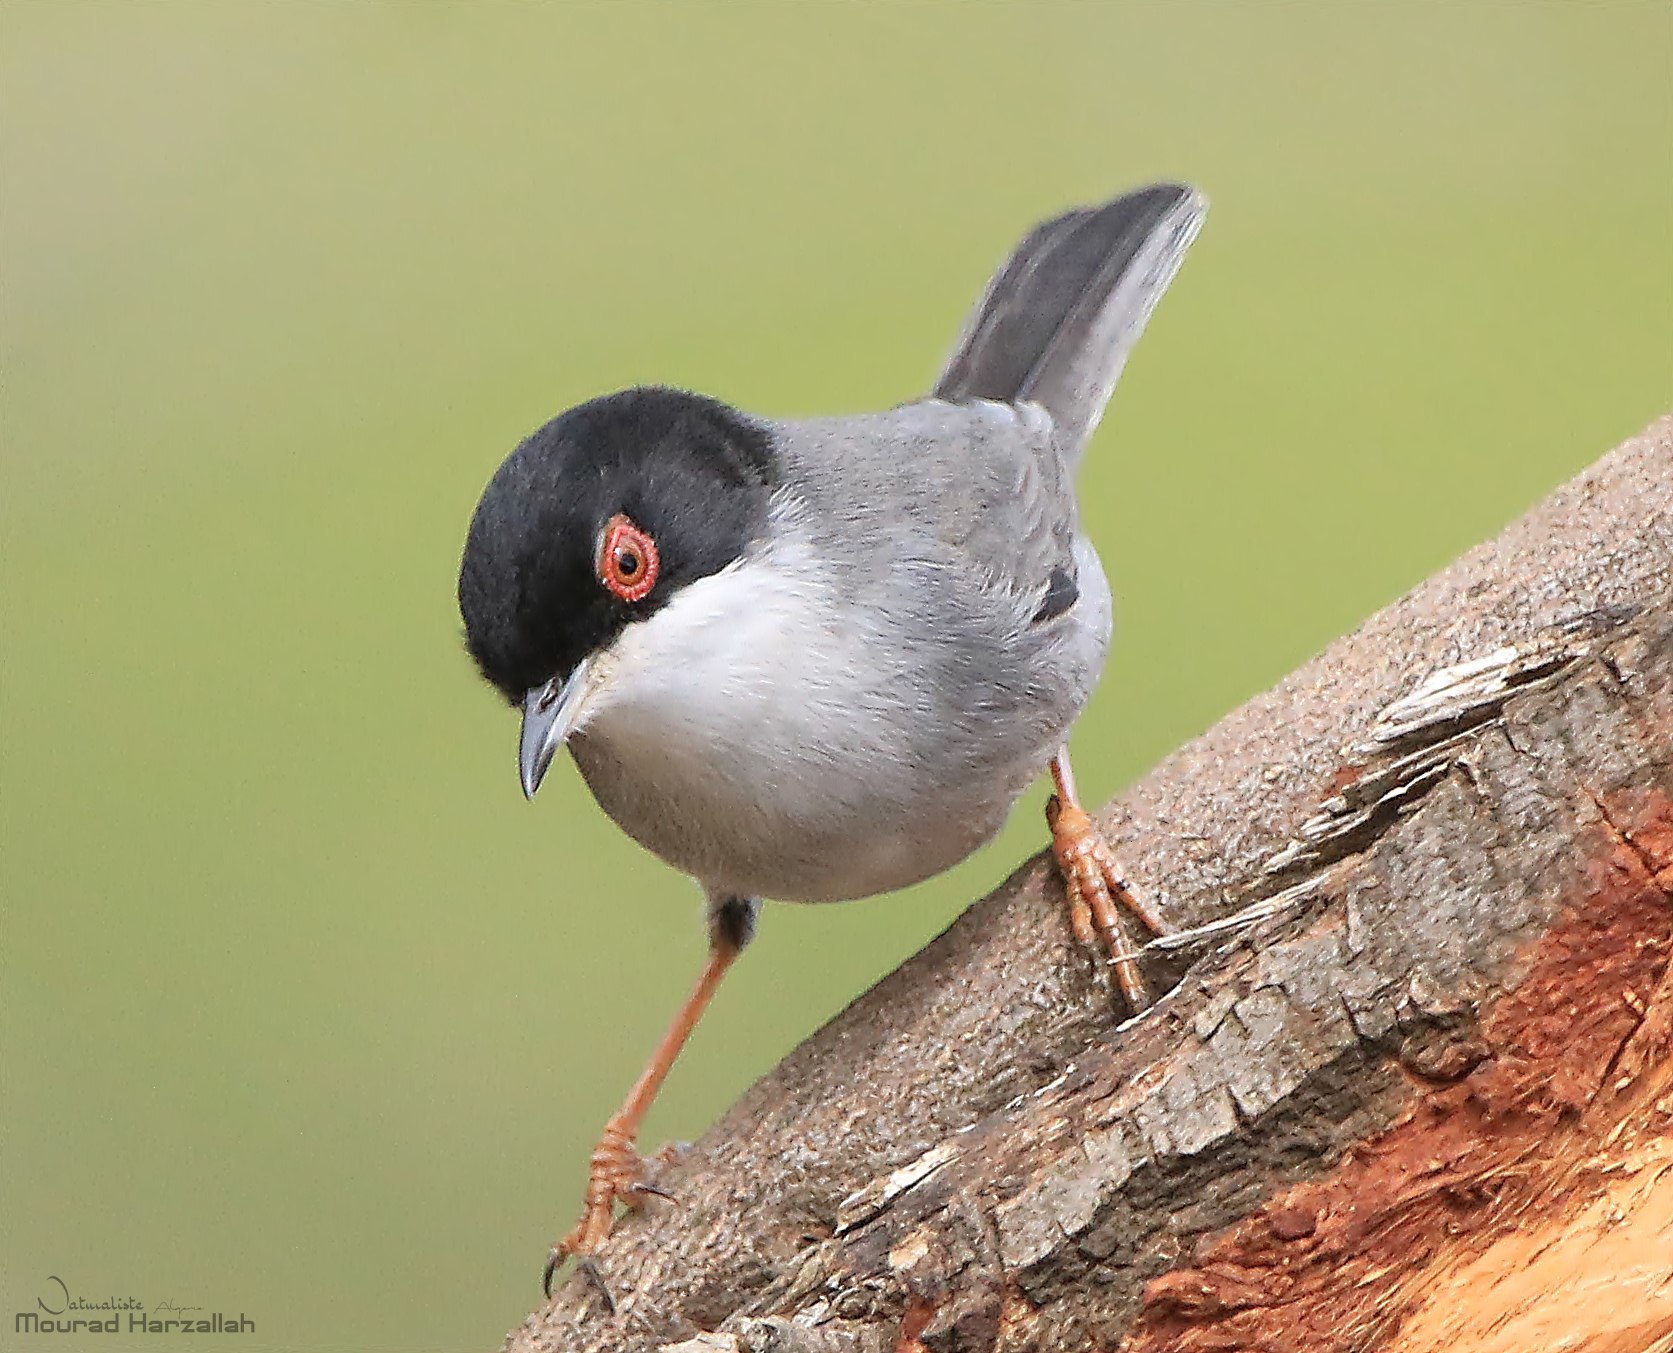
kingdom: Animalia
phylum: Chordata
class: Aves
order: Passeriformes
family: Sylviidae
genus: Curruca
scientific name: Curruca melanocephala
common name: Sardinian warbler
